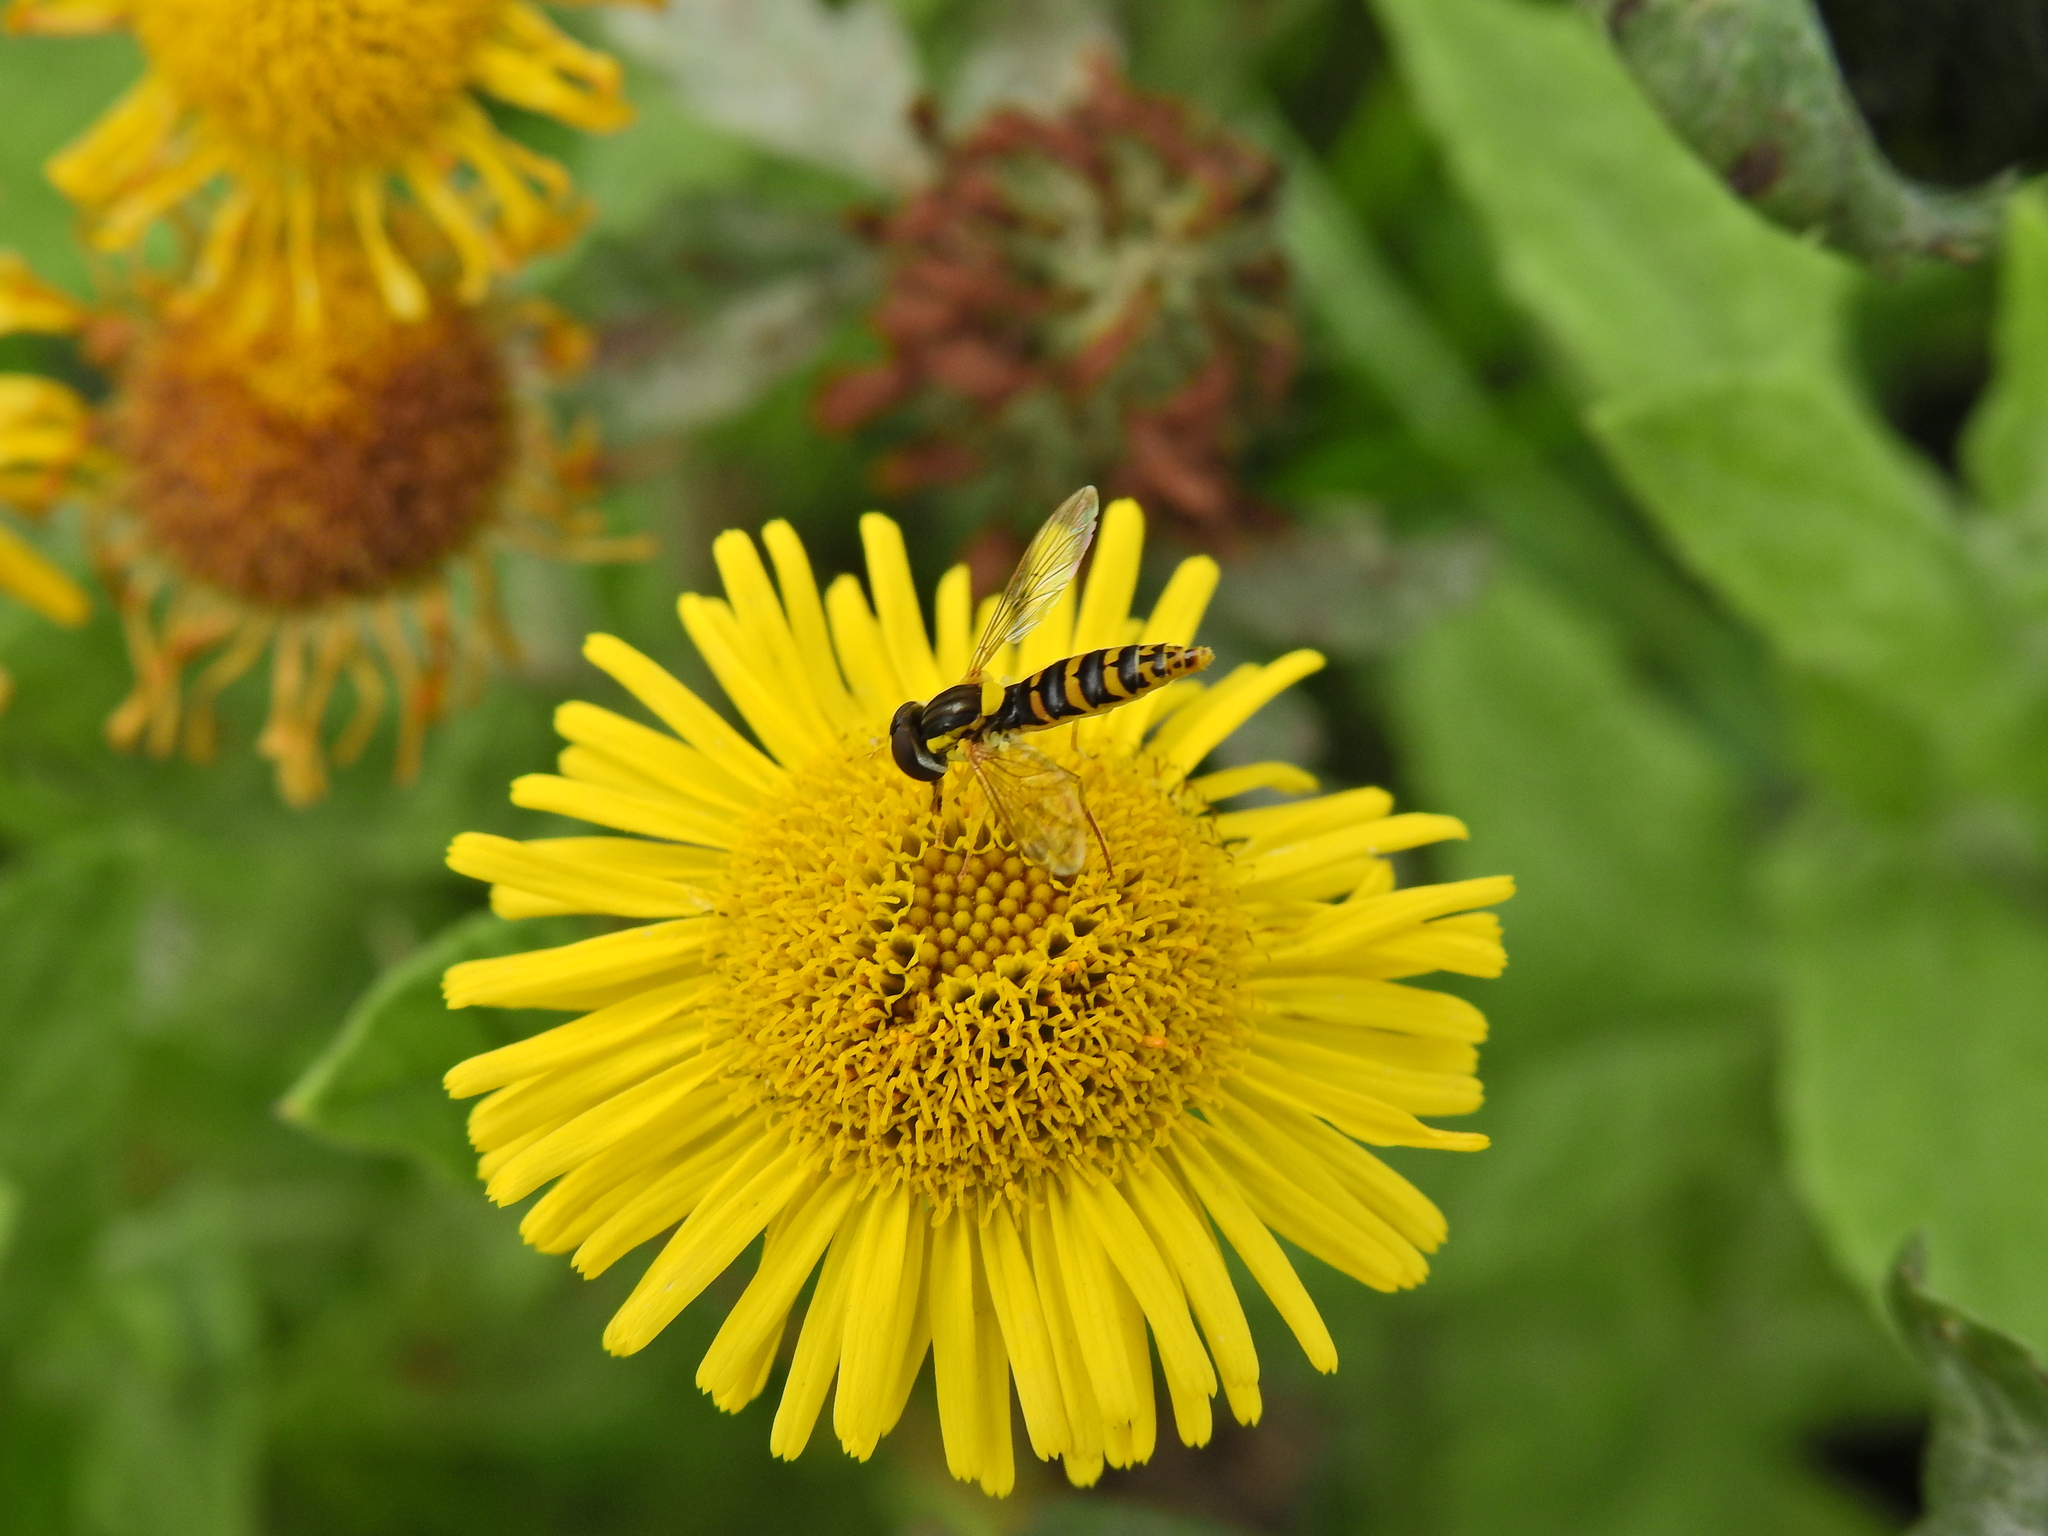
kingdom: Animalia
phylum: Arthropoda
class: Insecta
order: Diptera
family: Syrphidae
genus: Sphaerophoria
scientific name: Sphaerophoria
